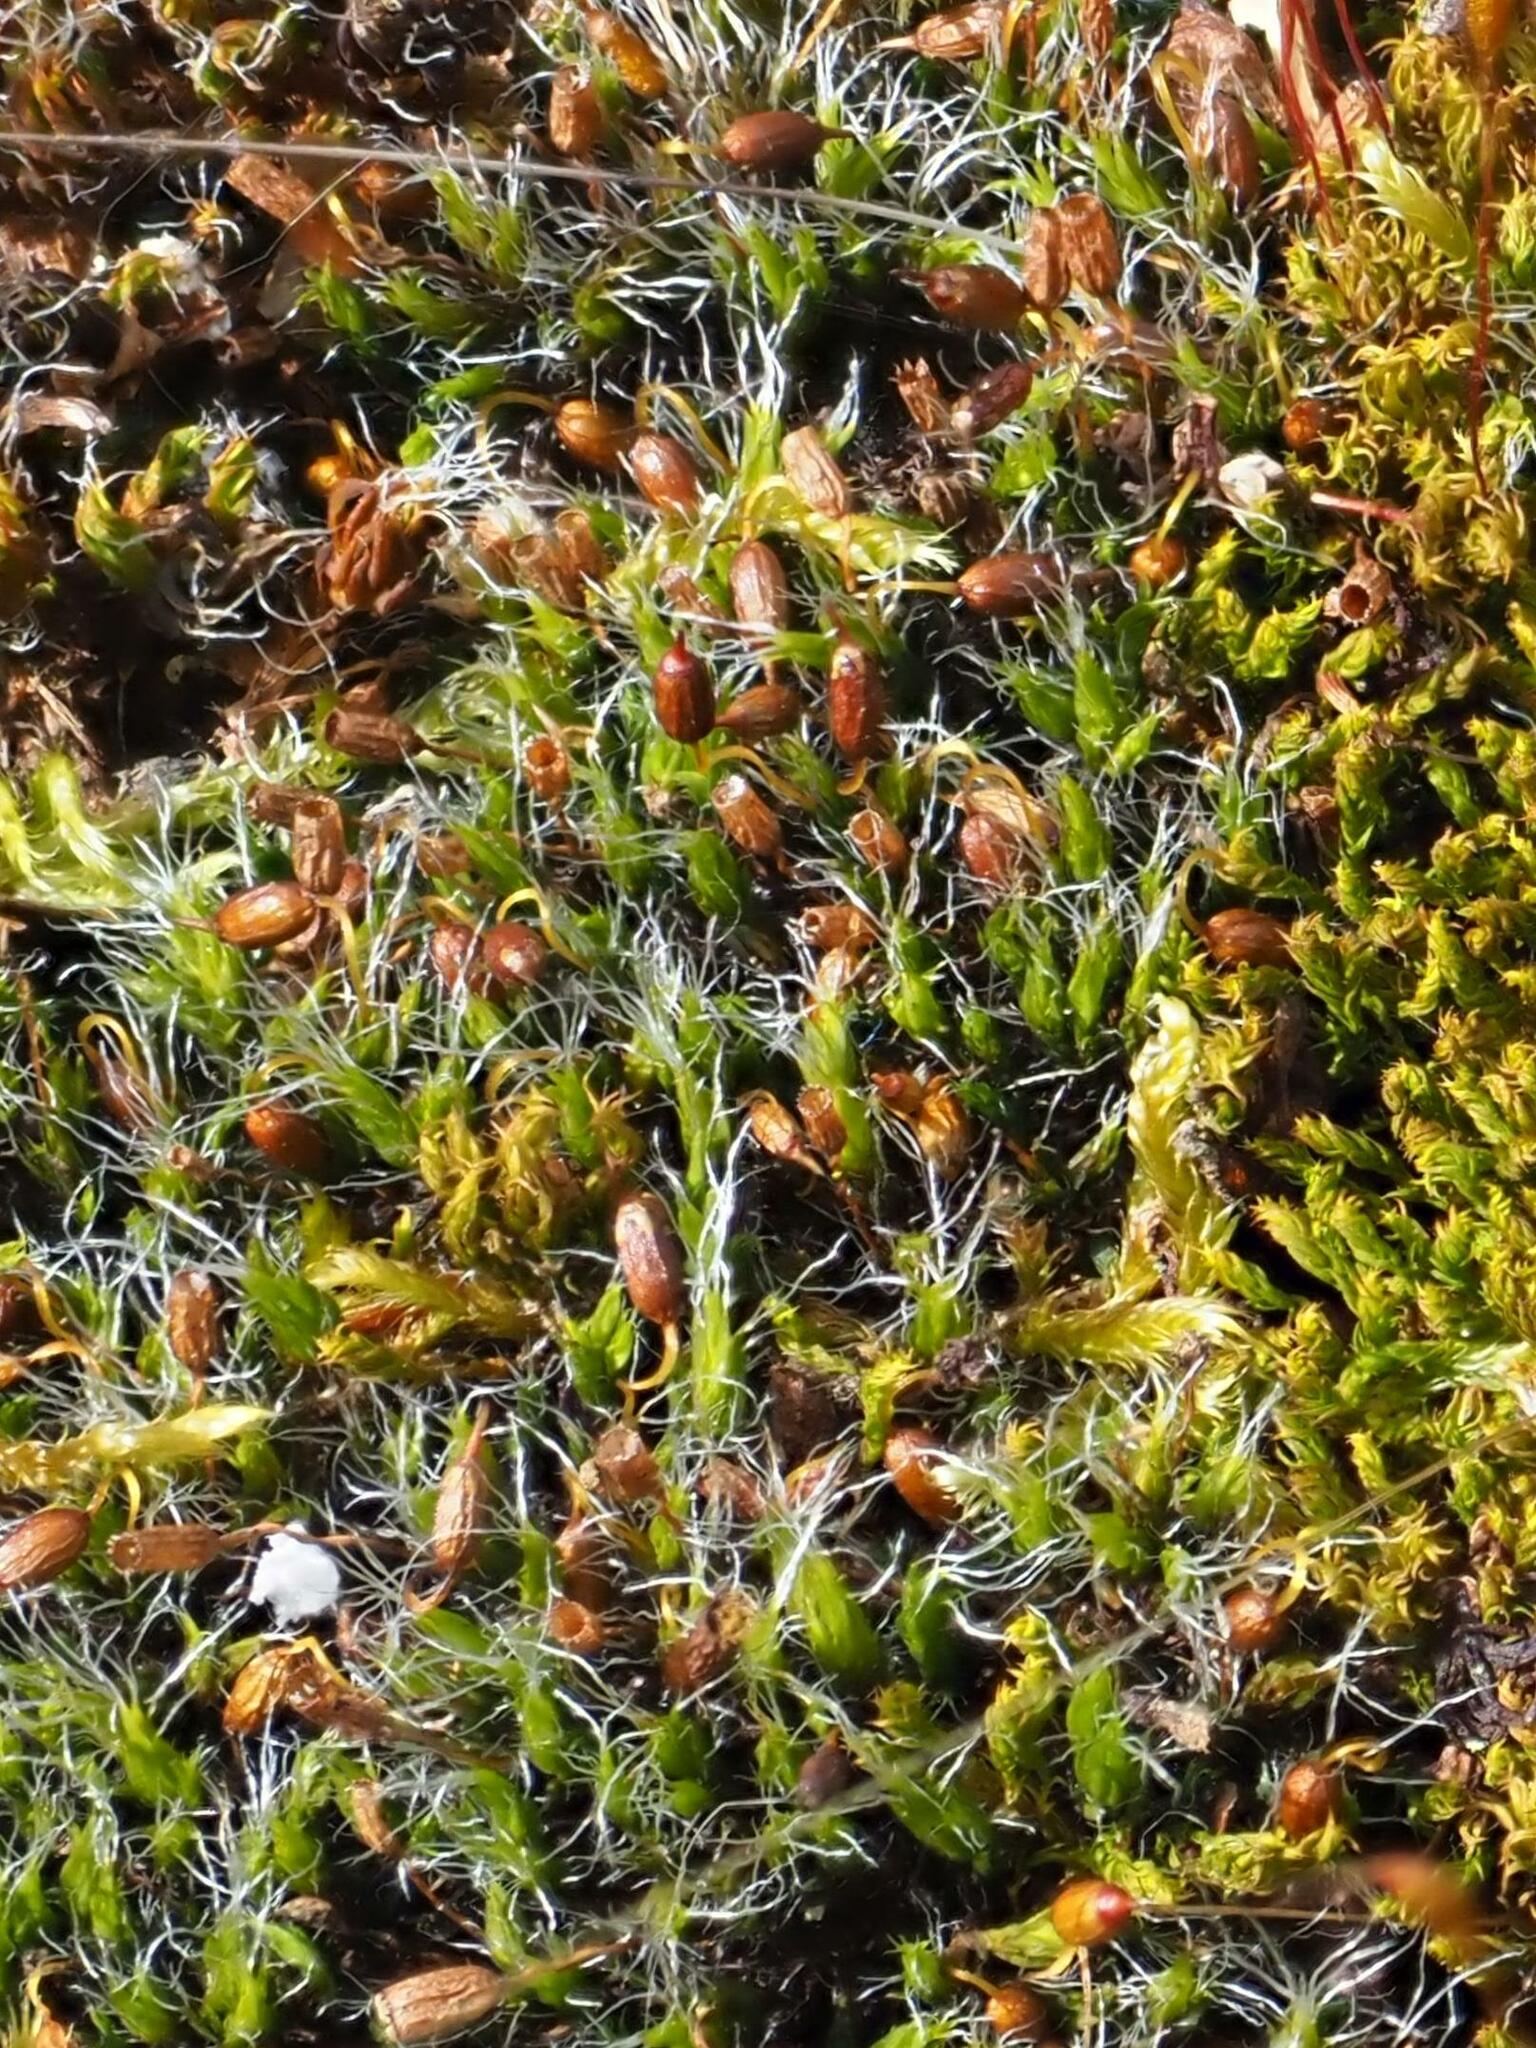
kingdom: Plantae
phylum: Bryophyta
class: Bryopsida
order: Grimmiales
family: Grimmiaceae
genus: Grimmia
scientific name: Grimmia pulvinata
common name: Grey-cushioned grimmia
